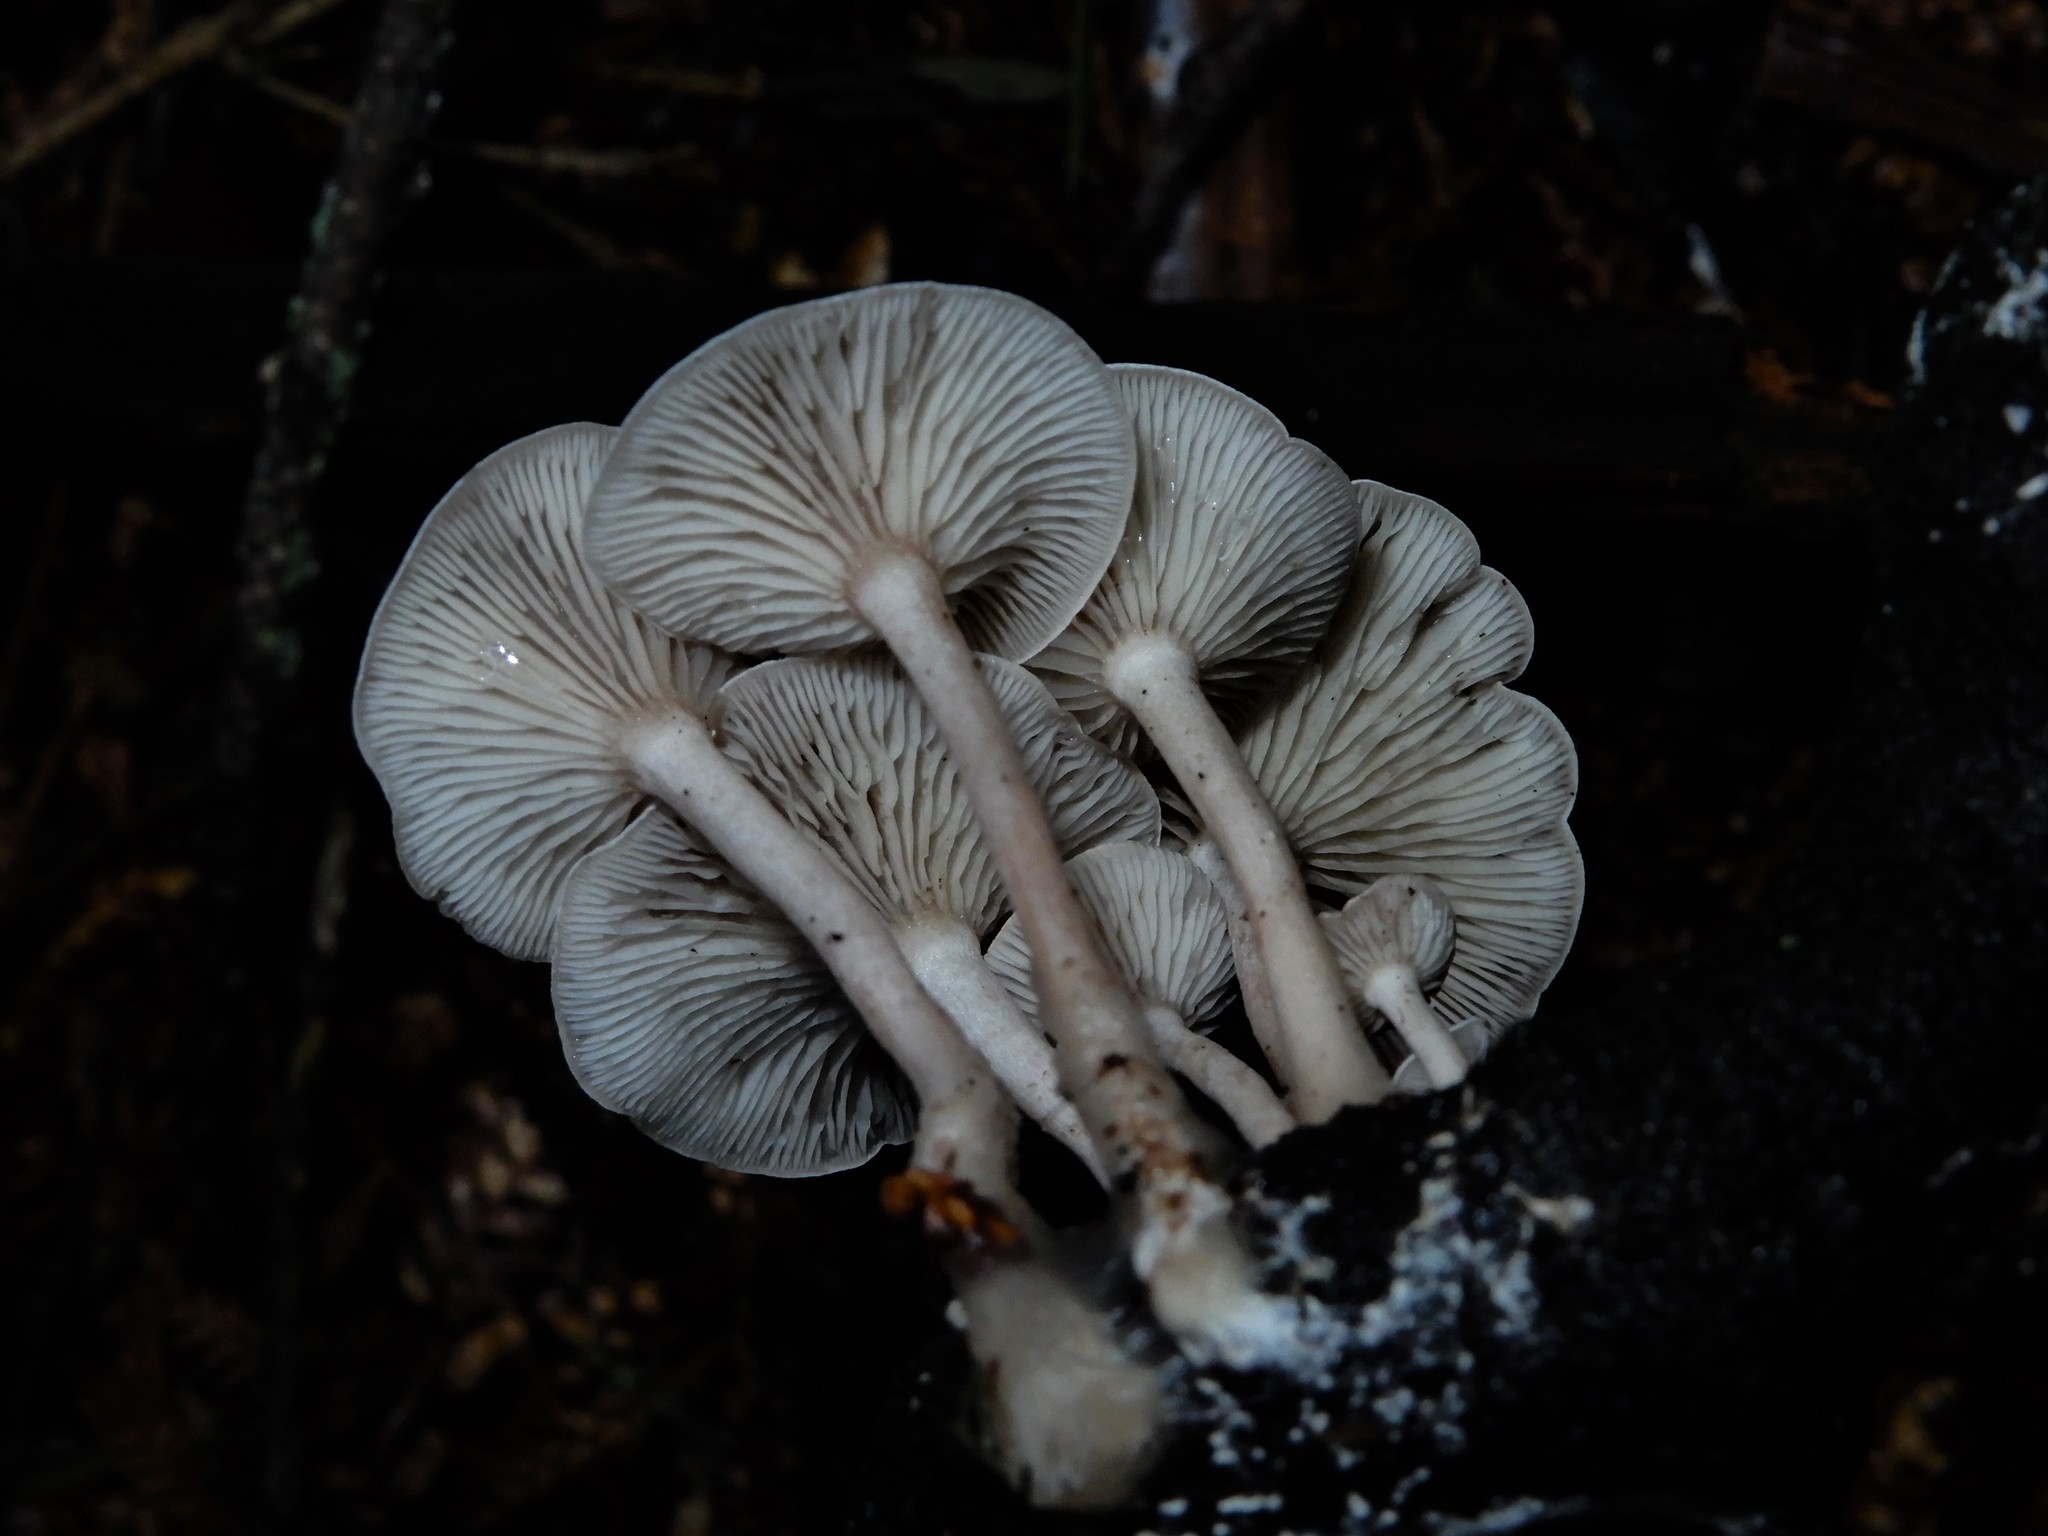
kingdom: Fungi
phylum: Basidiomycota
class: Agaricomycetes
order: Agaricales
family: Tricholomataceae
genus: Clitocybe
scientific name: Clitocybe wellingtonensis
